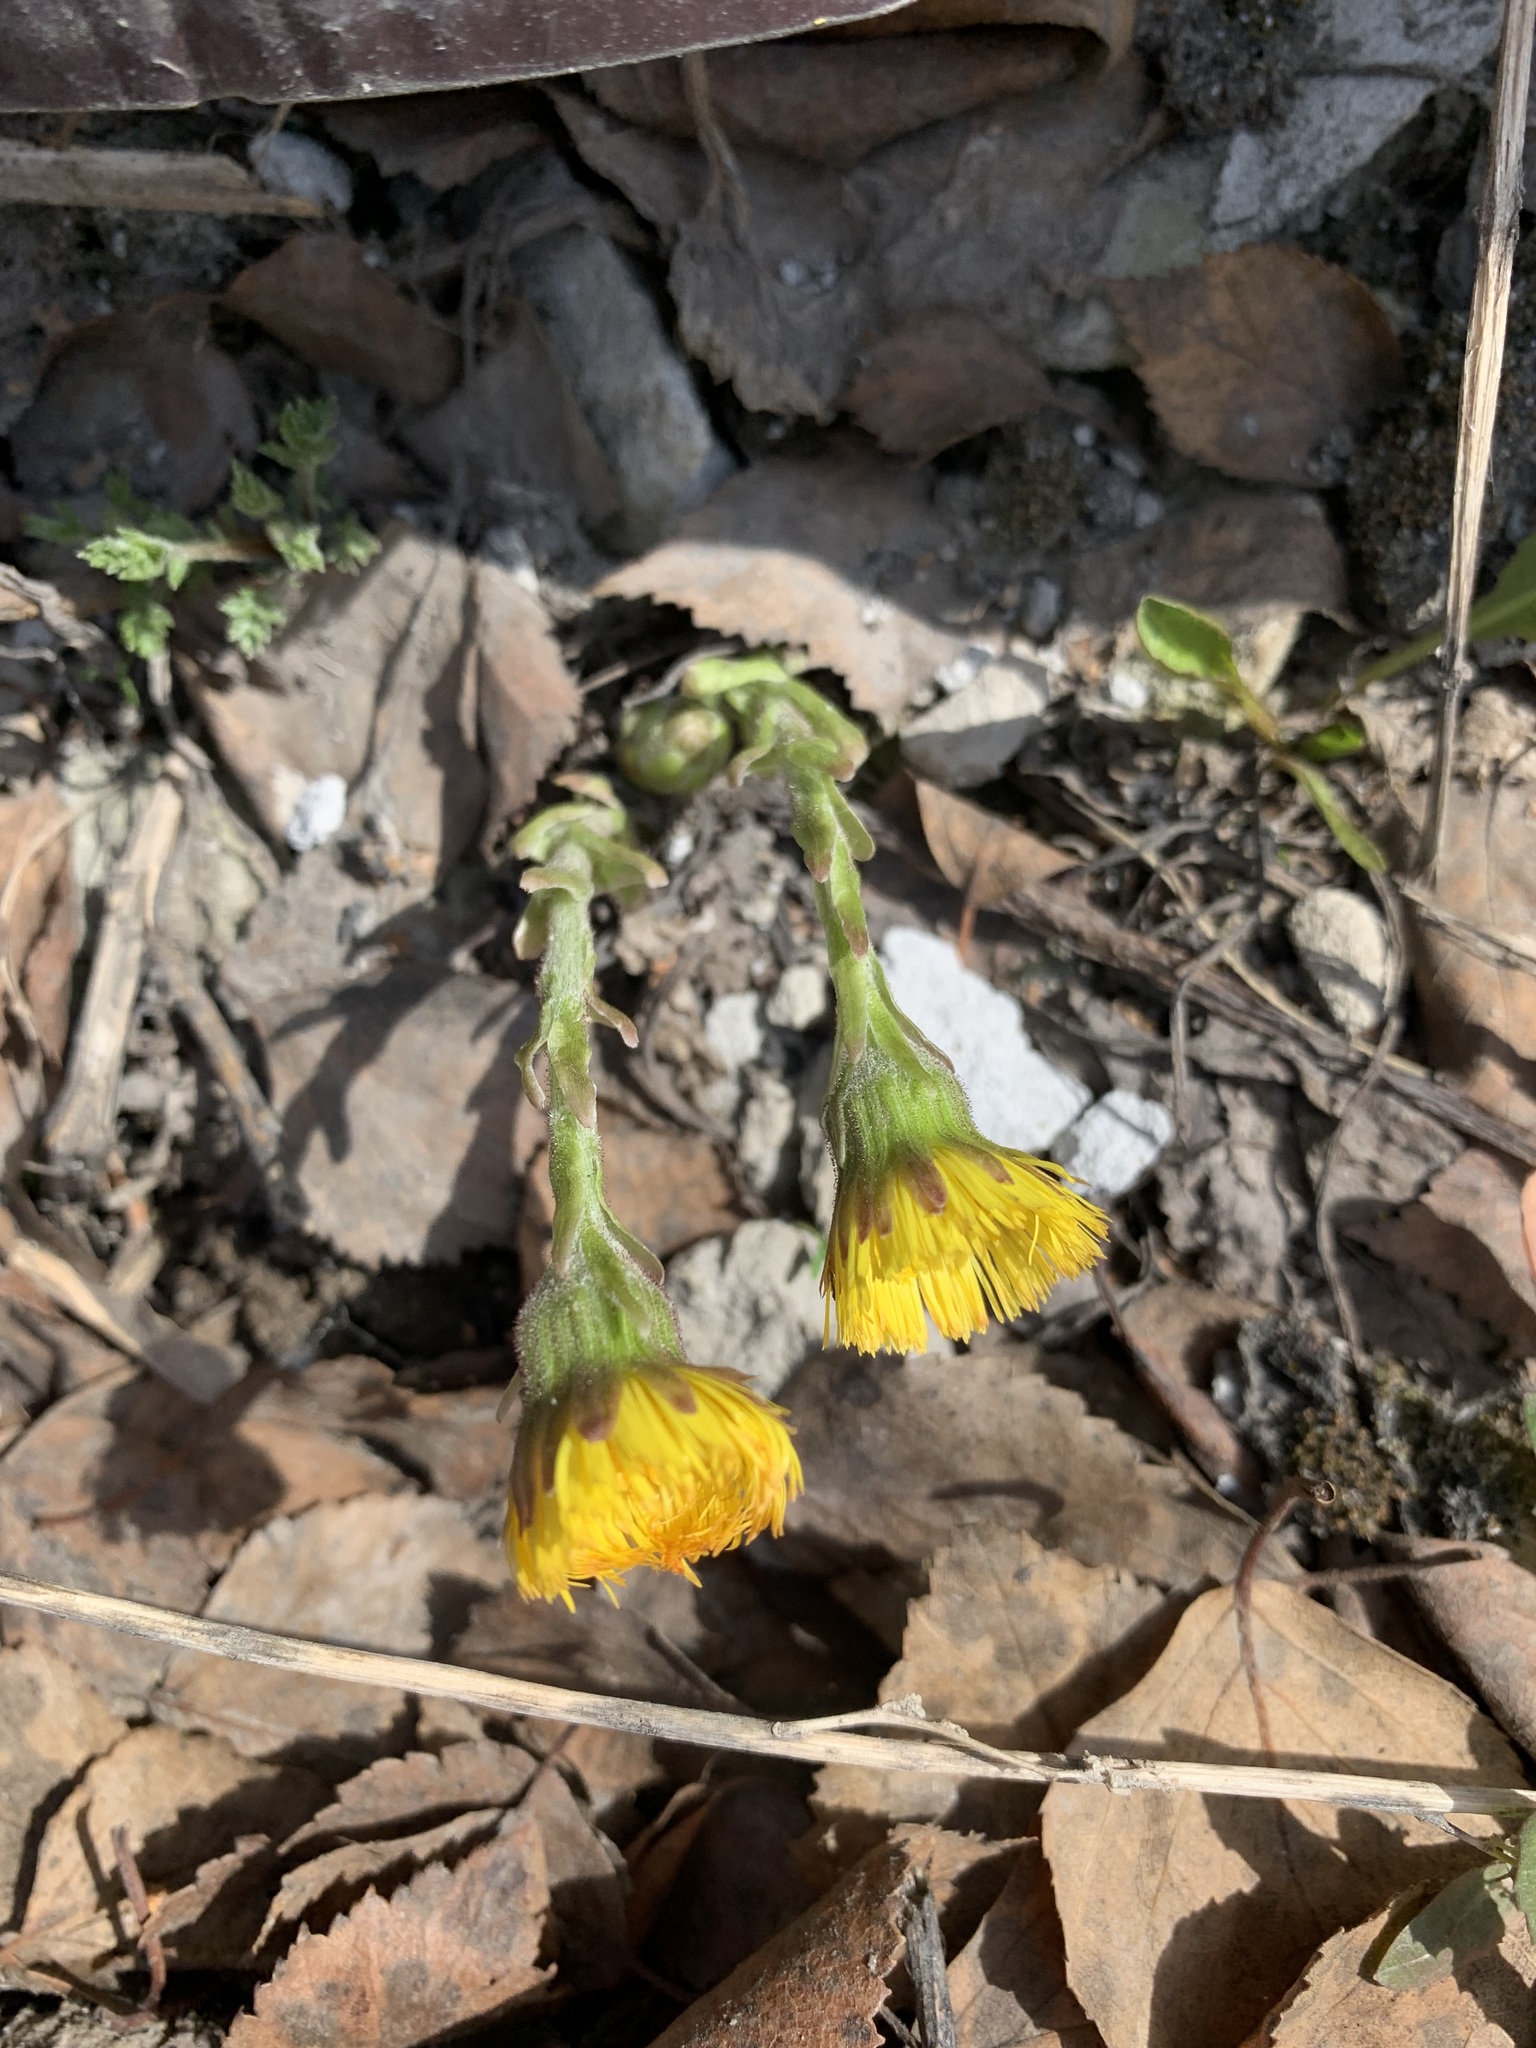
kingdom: Plantae
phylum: Tracheophyta
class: Magnoliopsida
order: Asterales
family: Asteraceae
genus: Tussilago
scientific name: Tussilago farfara
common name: Coltsfoot
